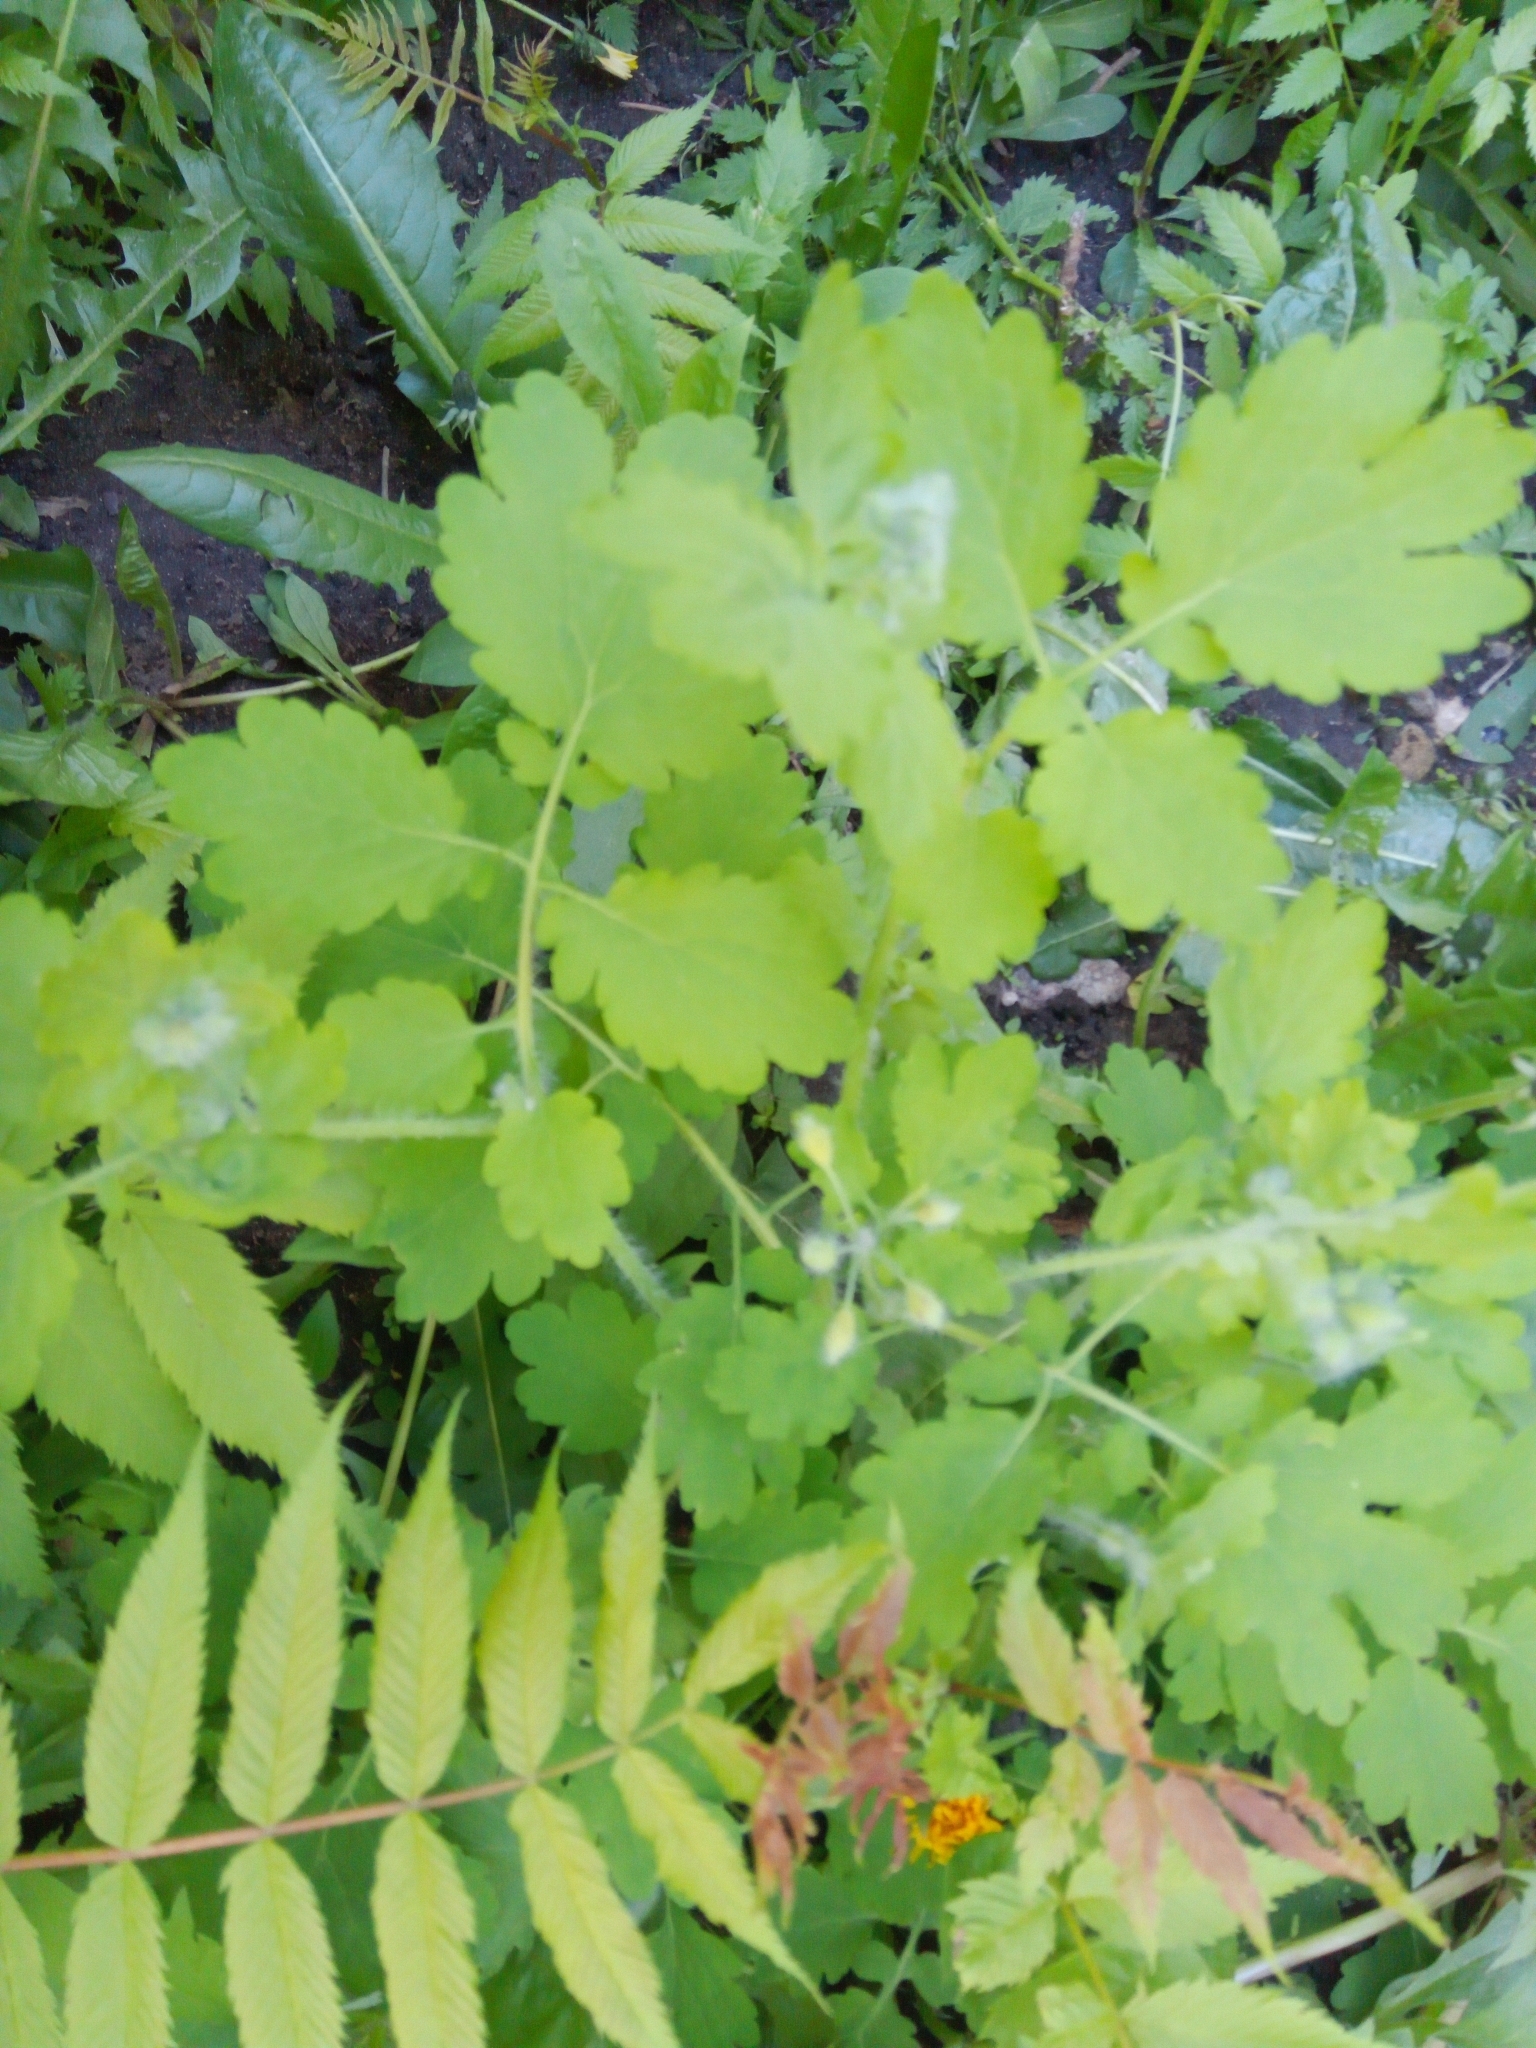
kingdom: Plantae
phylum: Tracheophyta
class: Magnoliopsida
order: Ranunculales
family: Papaveraceae
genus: Chelidonium
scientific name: Chelidonium majus
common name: Greater celandine
